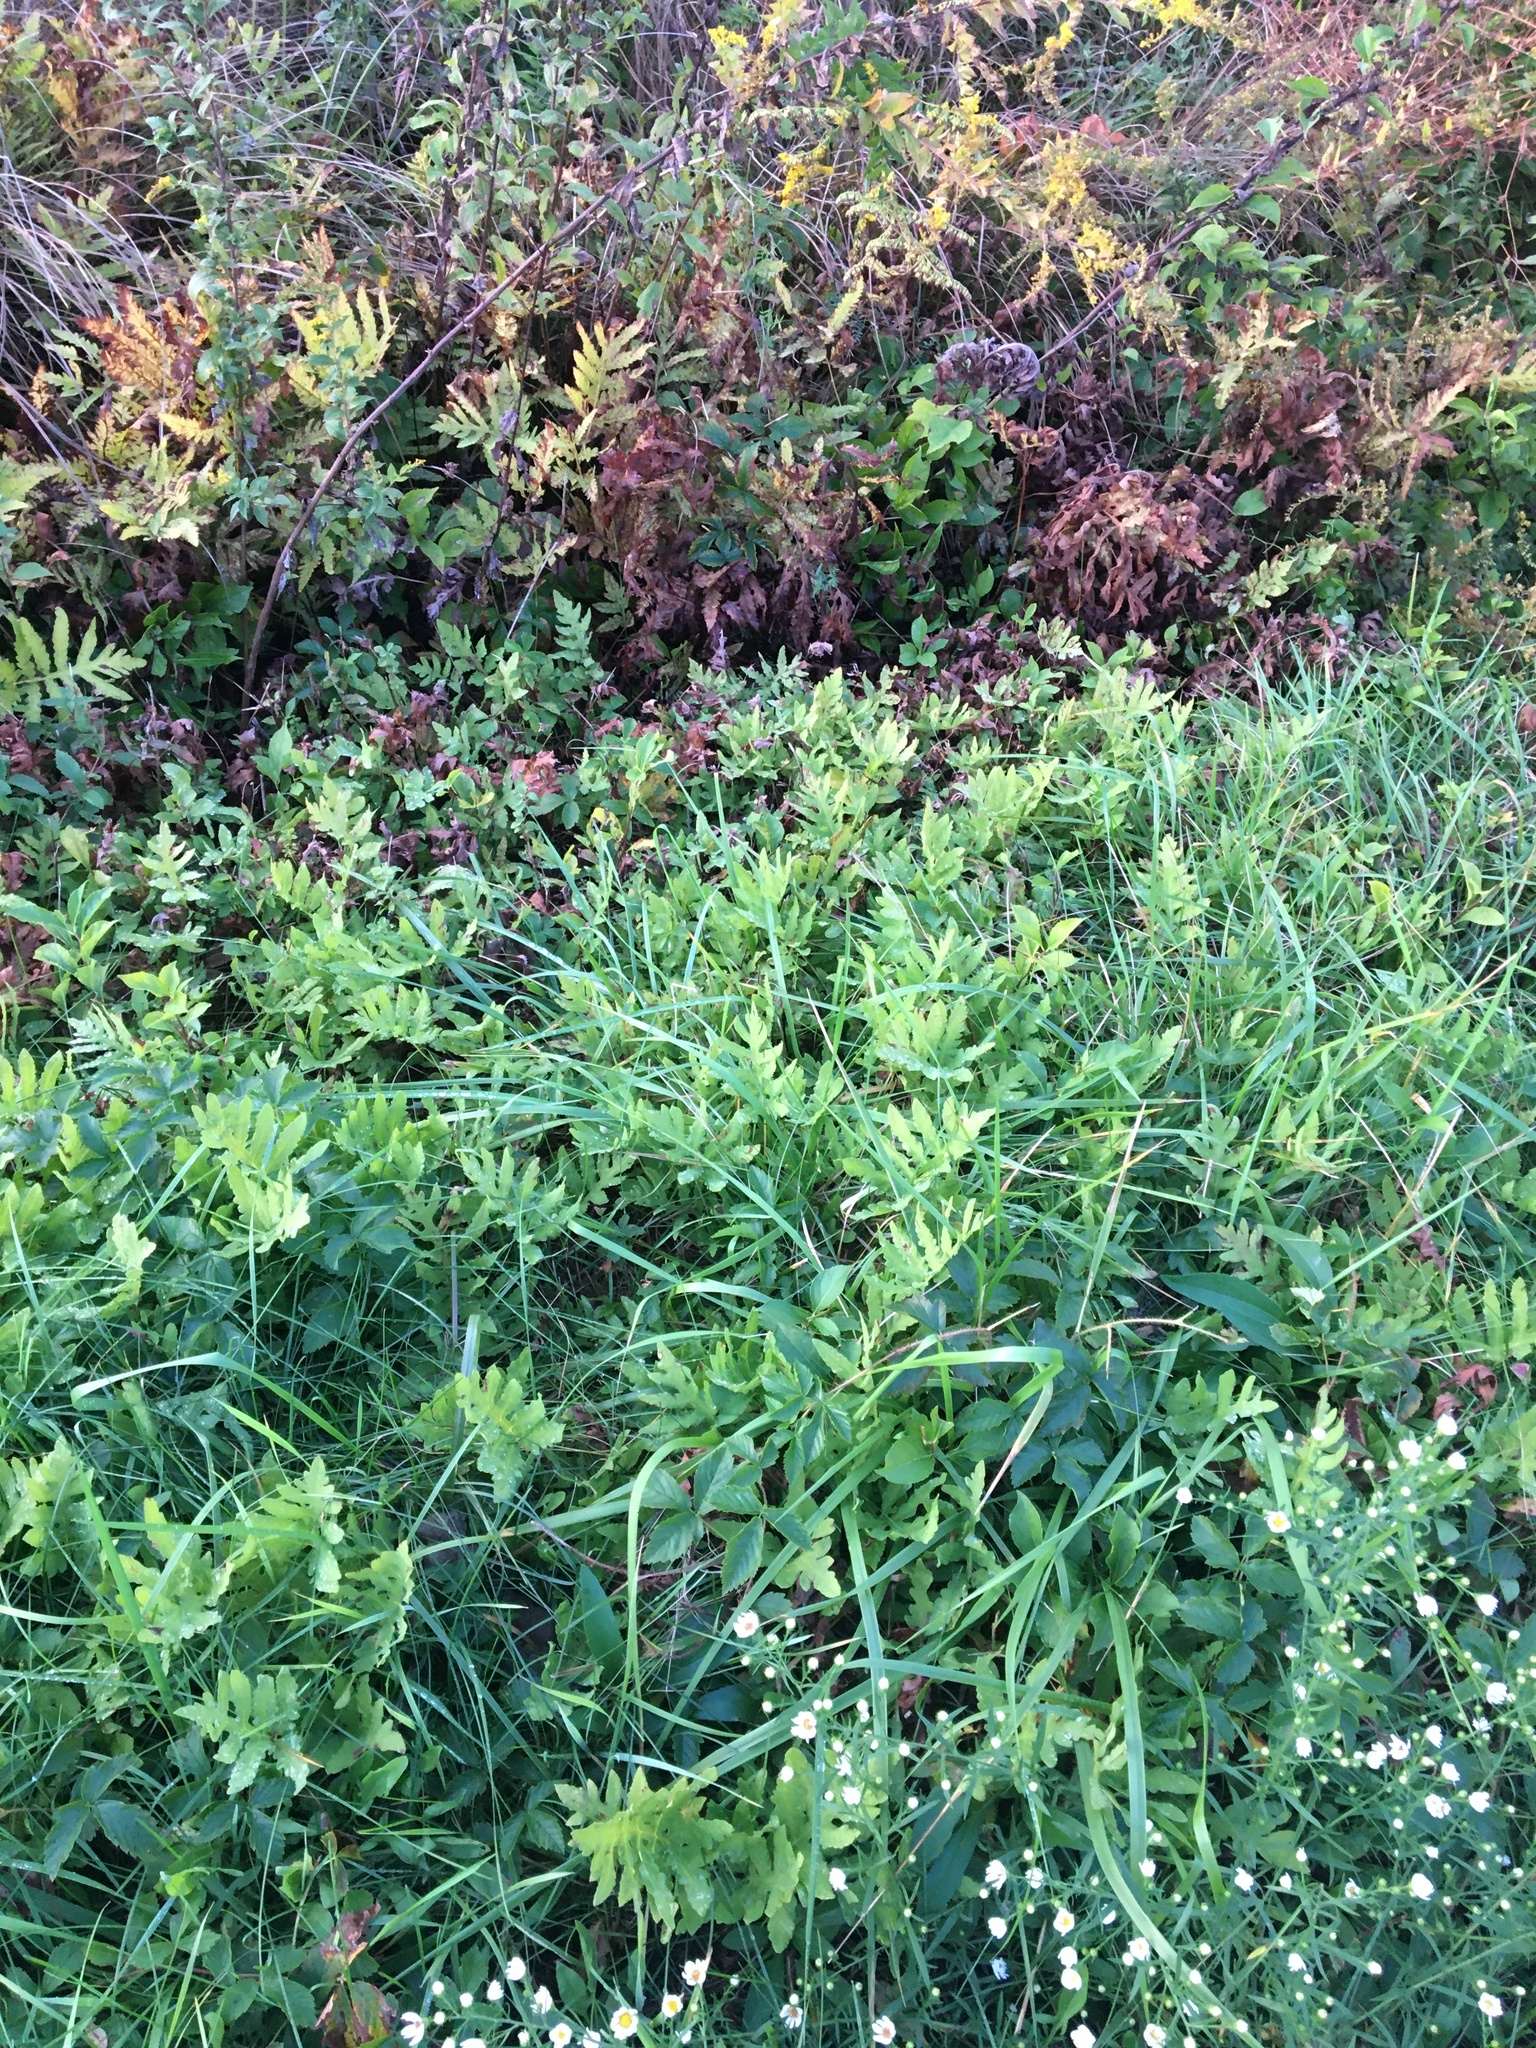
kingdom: Plantae
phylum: Tracheophyta
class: Polypodiopsida
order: Polypodiales
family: Onocleaceae
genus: Onoclea
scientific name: Onoclea sensibilis
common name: Sensitive fern
